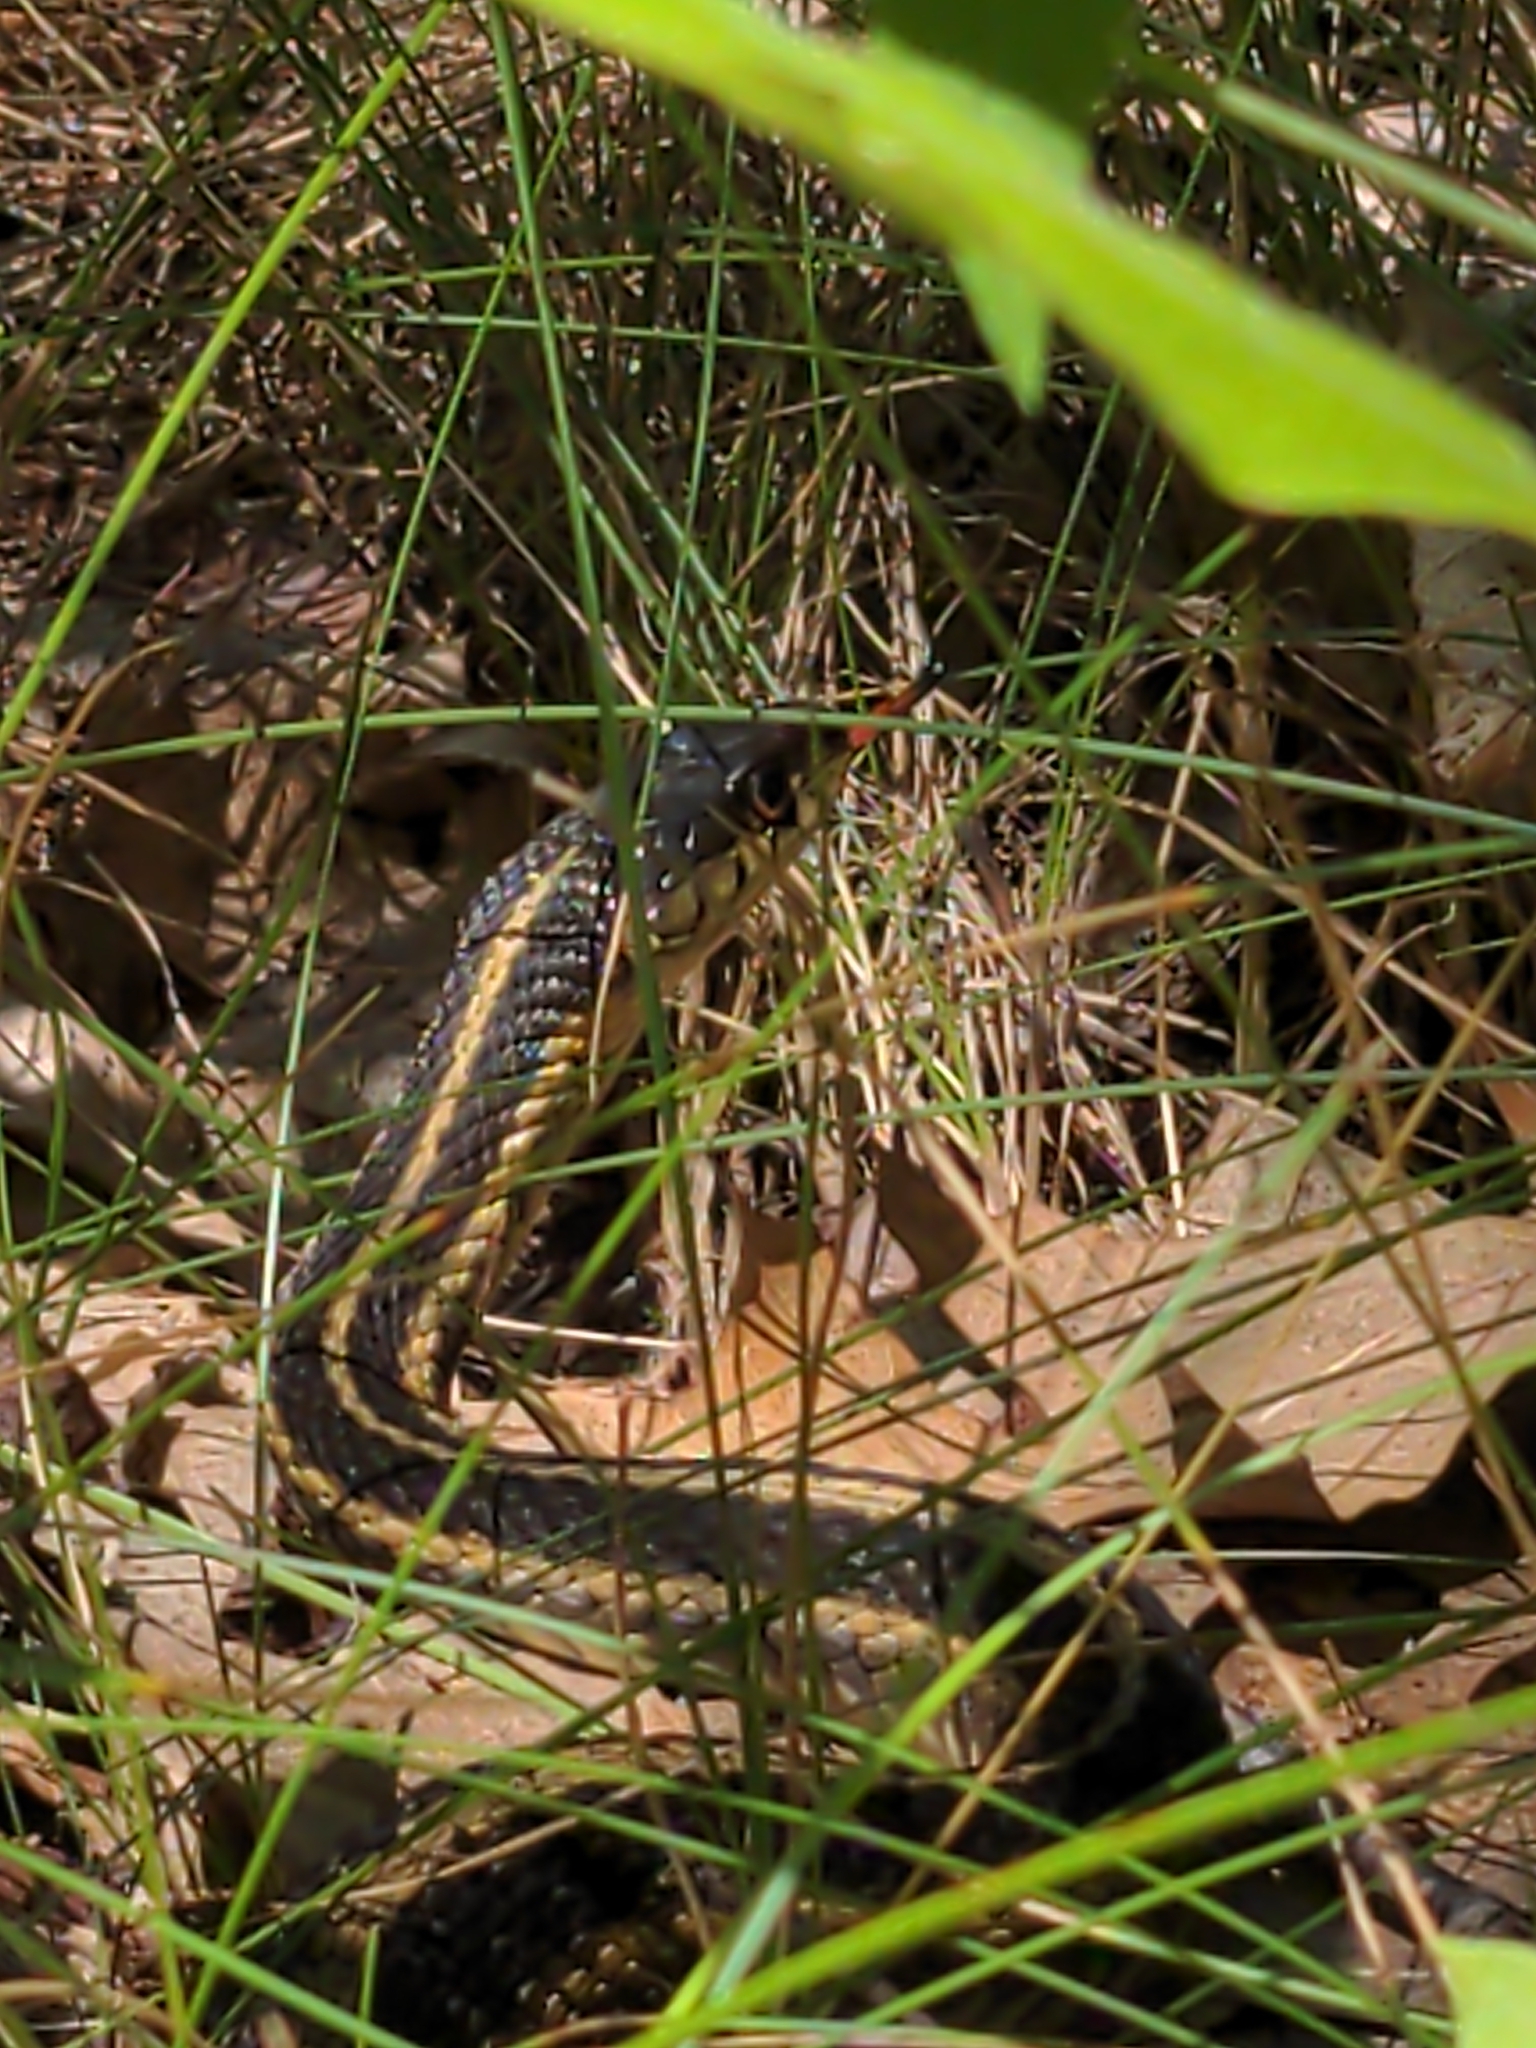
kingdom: Animalia
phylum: Chordata
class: Squamata
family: Colubridae
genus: Thamnophis
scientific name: Thamnophis sirtalis
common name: Common garter snake
